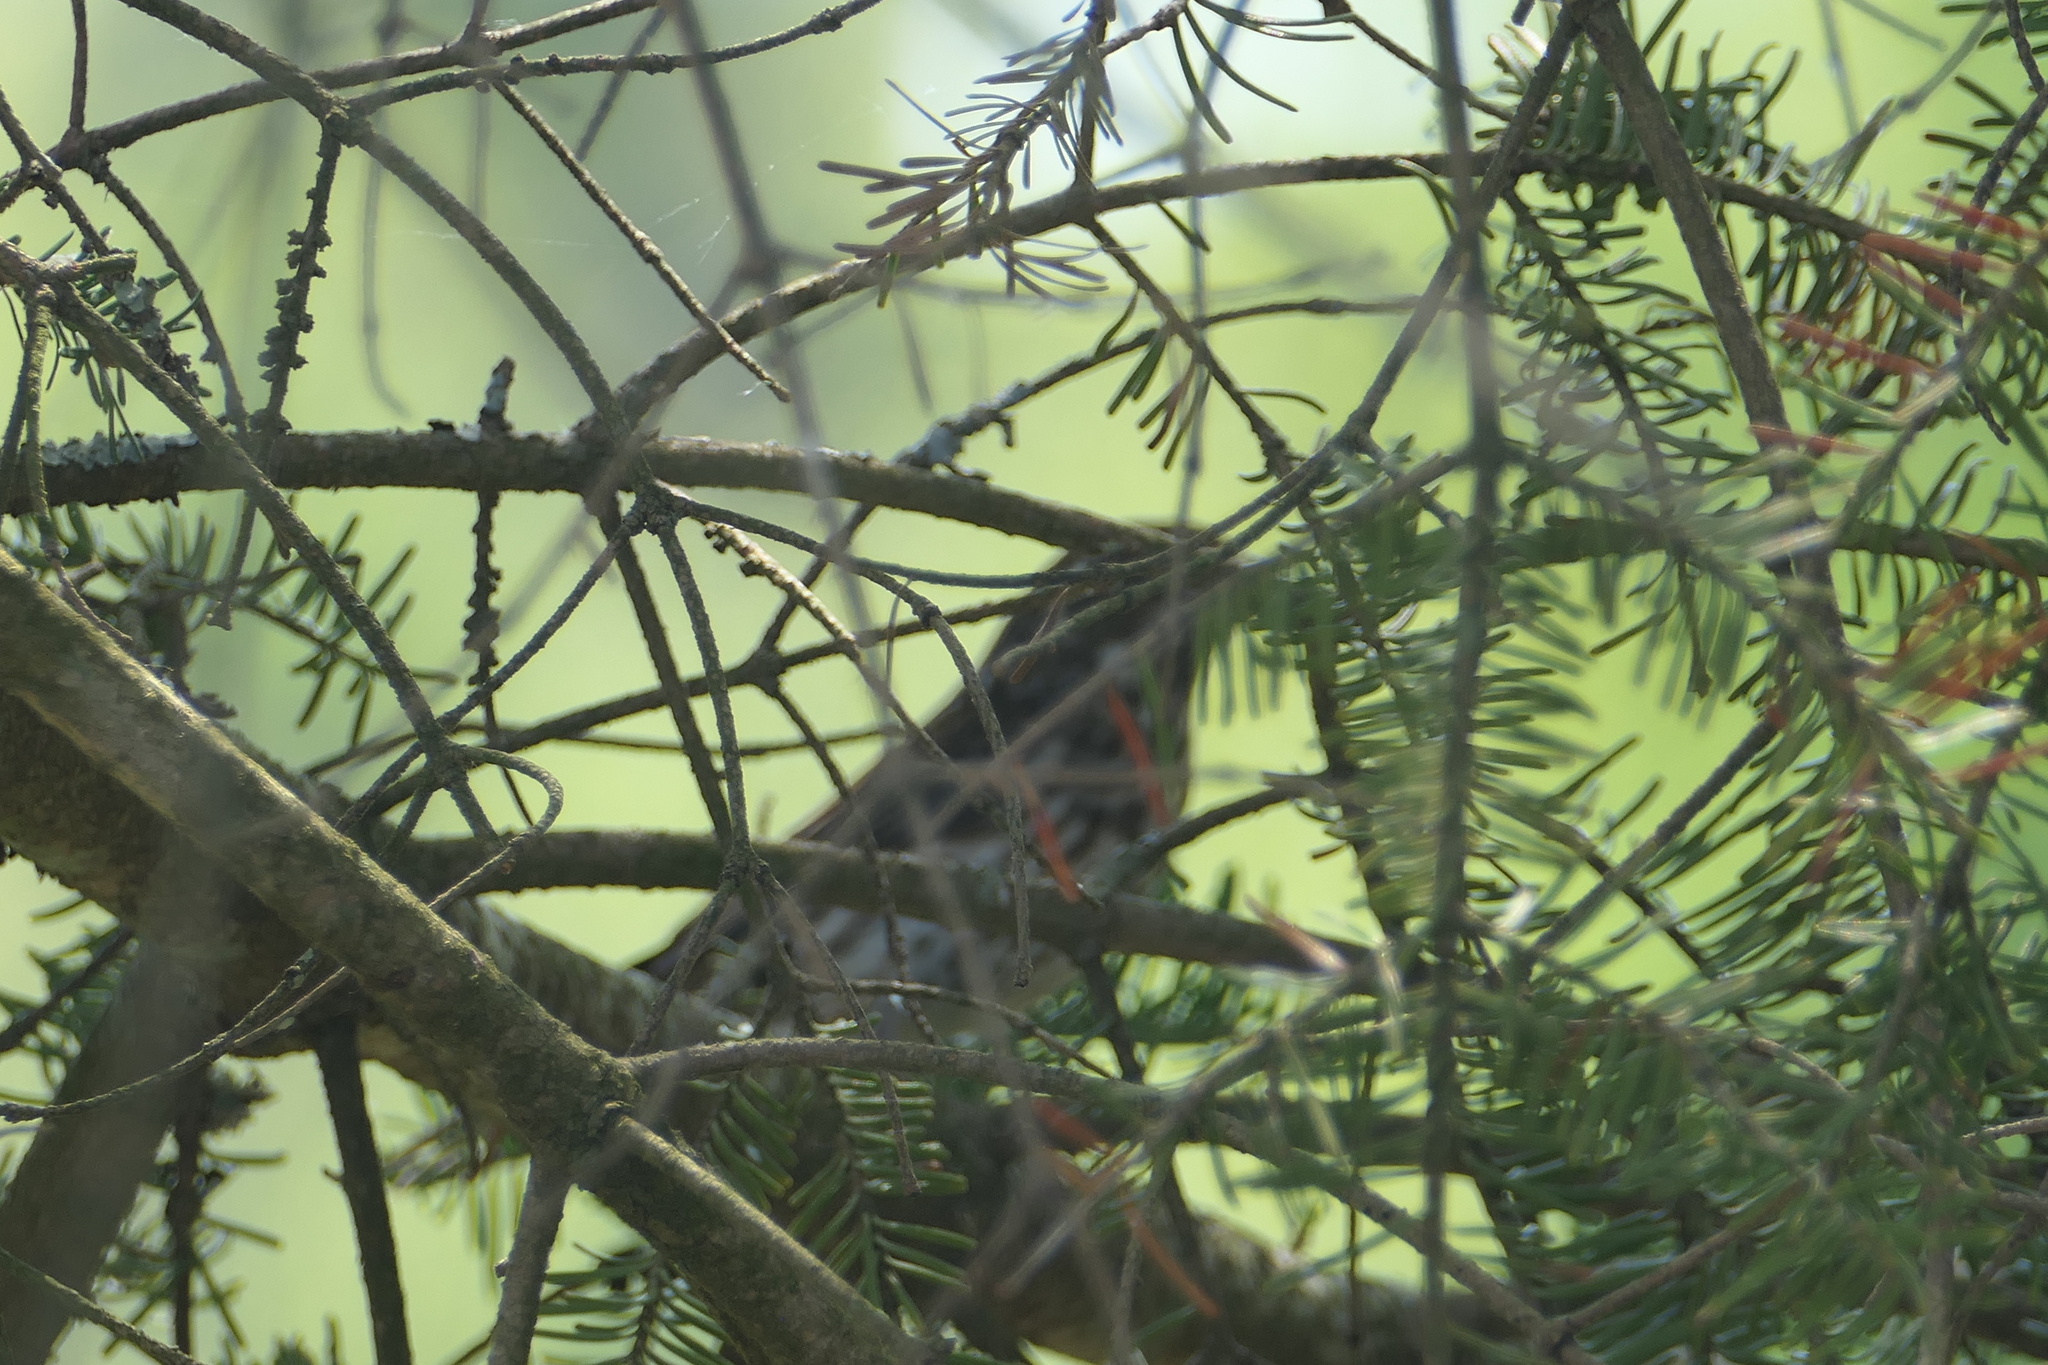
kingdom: Animalia
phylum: Chordata
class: Aves
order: Passeriformes
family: Fringillidae
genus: Haemorhous
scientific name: Haemorhous purpureus
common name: Purple finch
